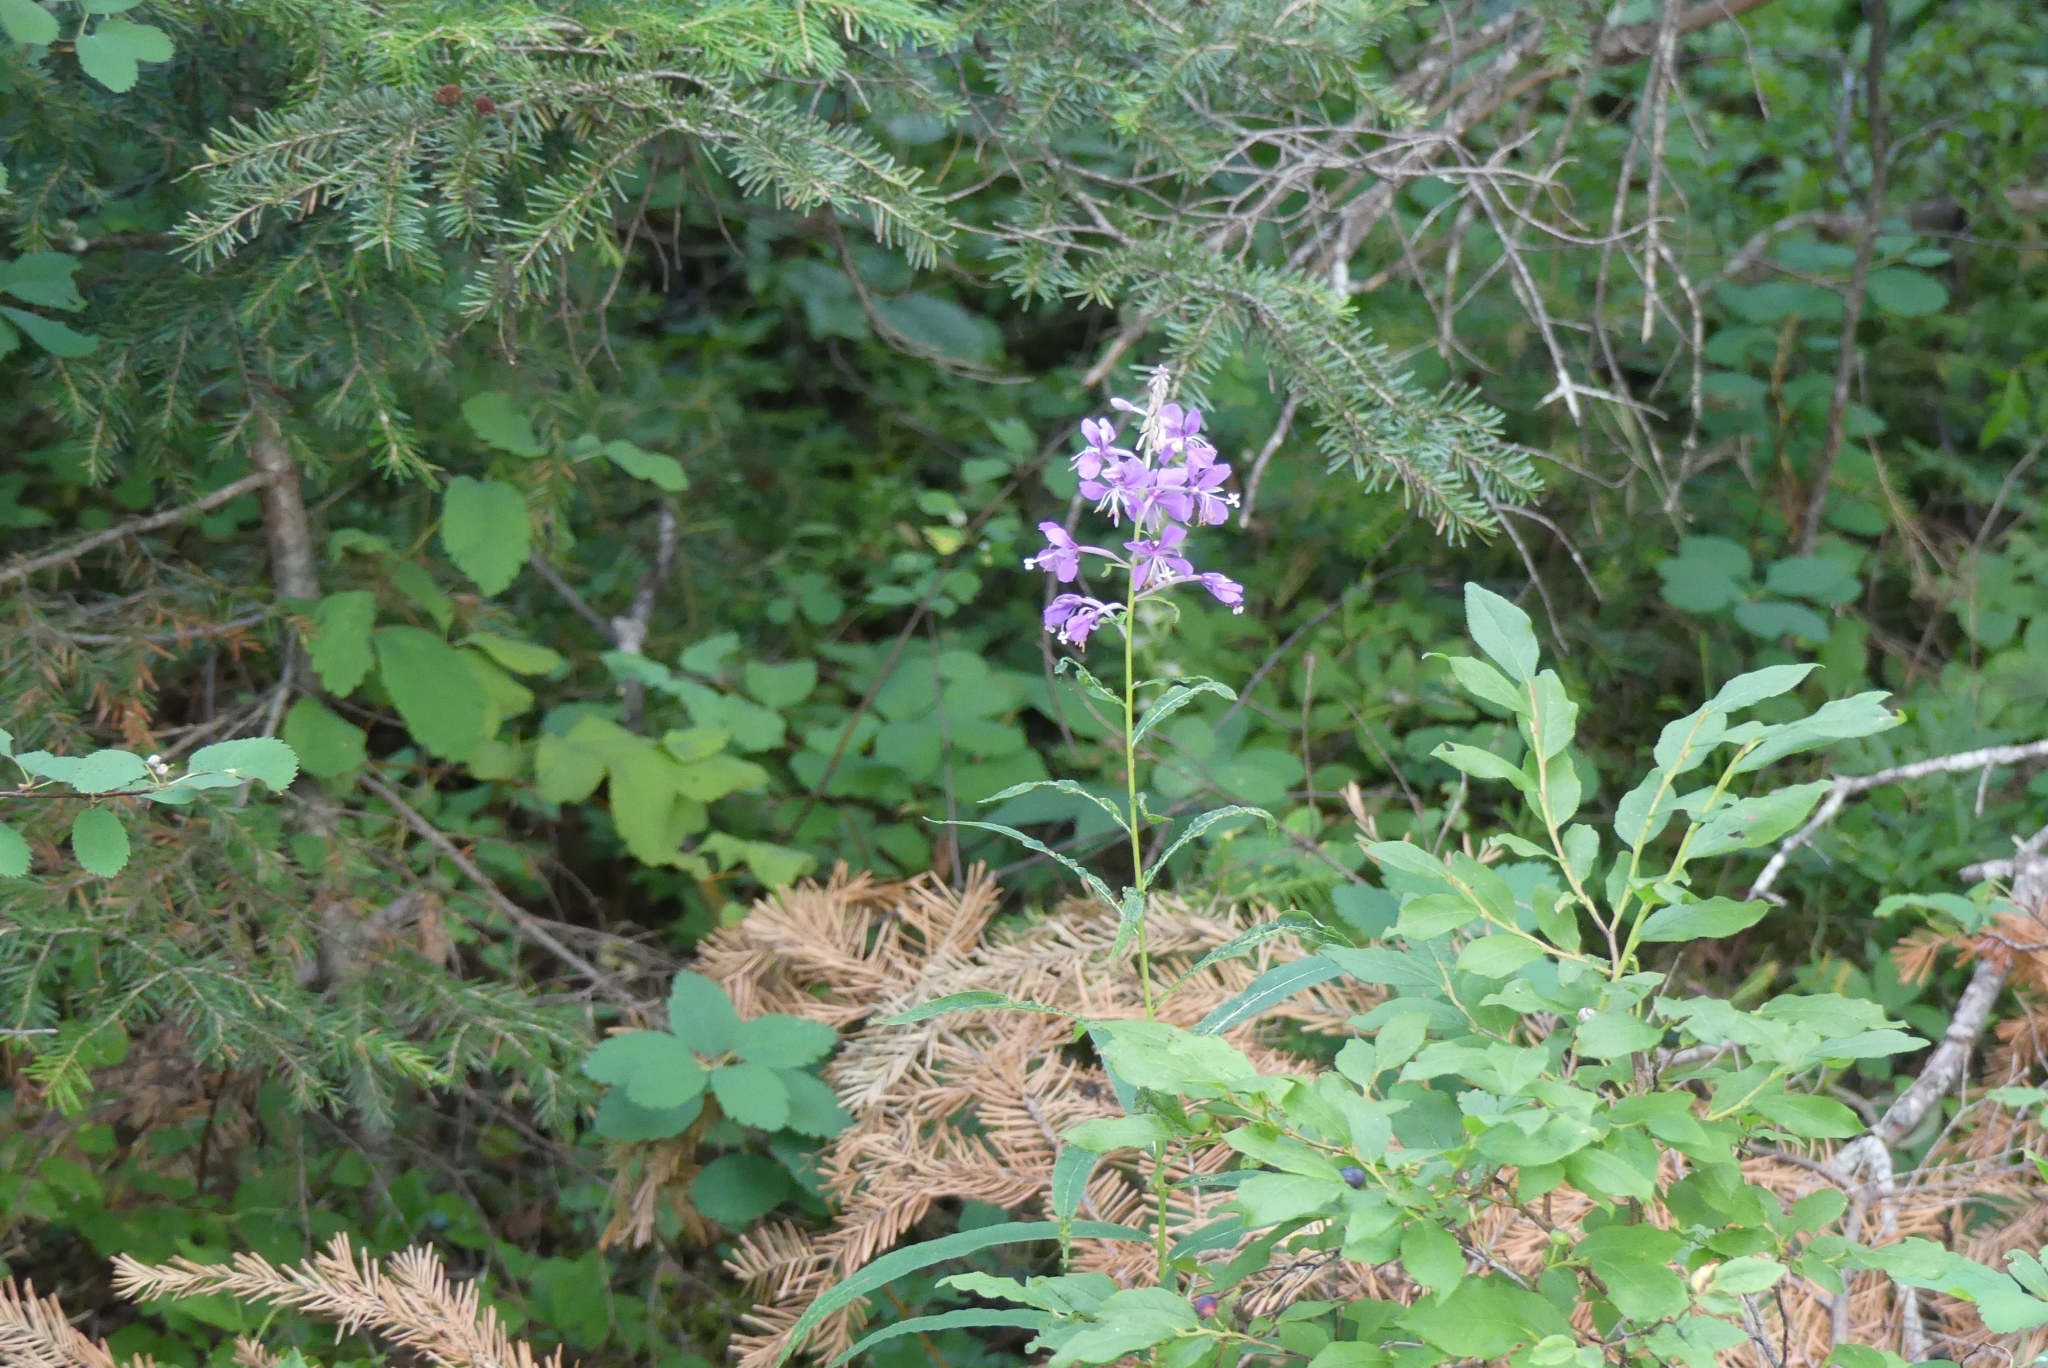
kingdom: Plantae
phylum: Tracheophyta
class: Magnoliopsida
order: Myrtales
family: Onagraceae
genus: Chamaenerion
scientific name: Chamaenerion angustifolium
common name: Fireweed
